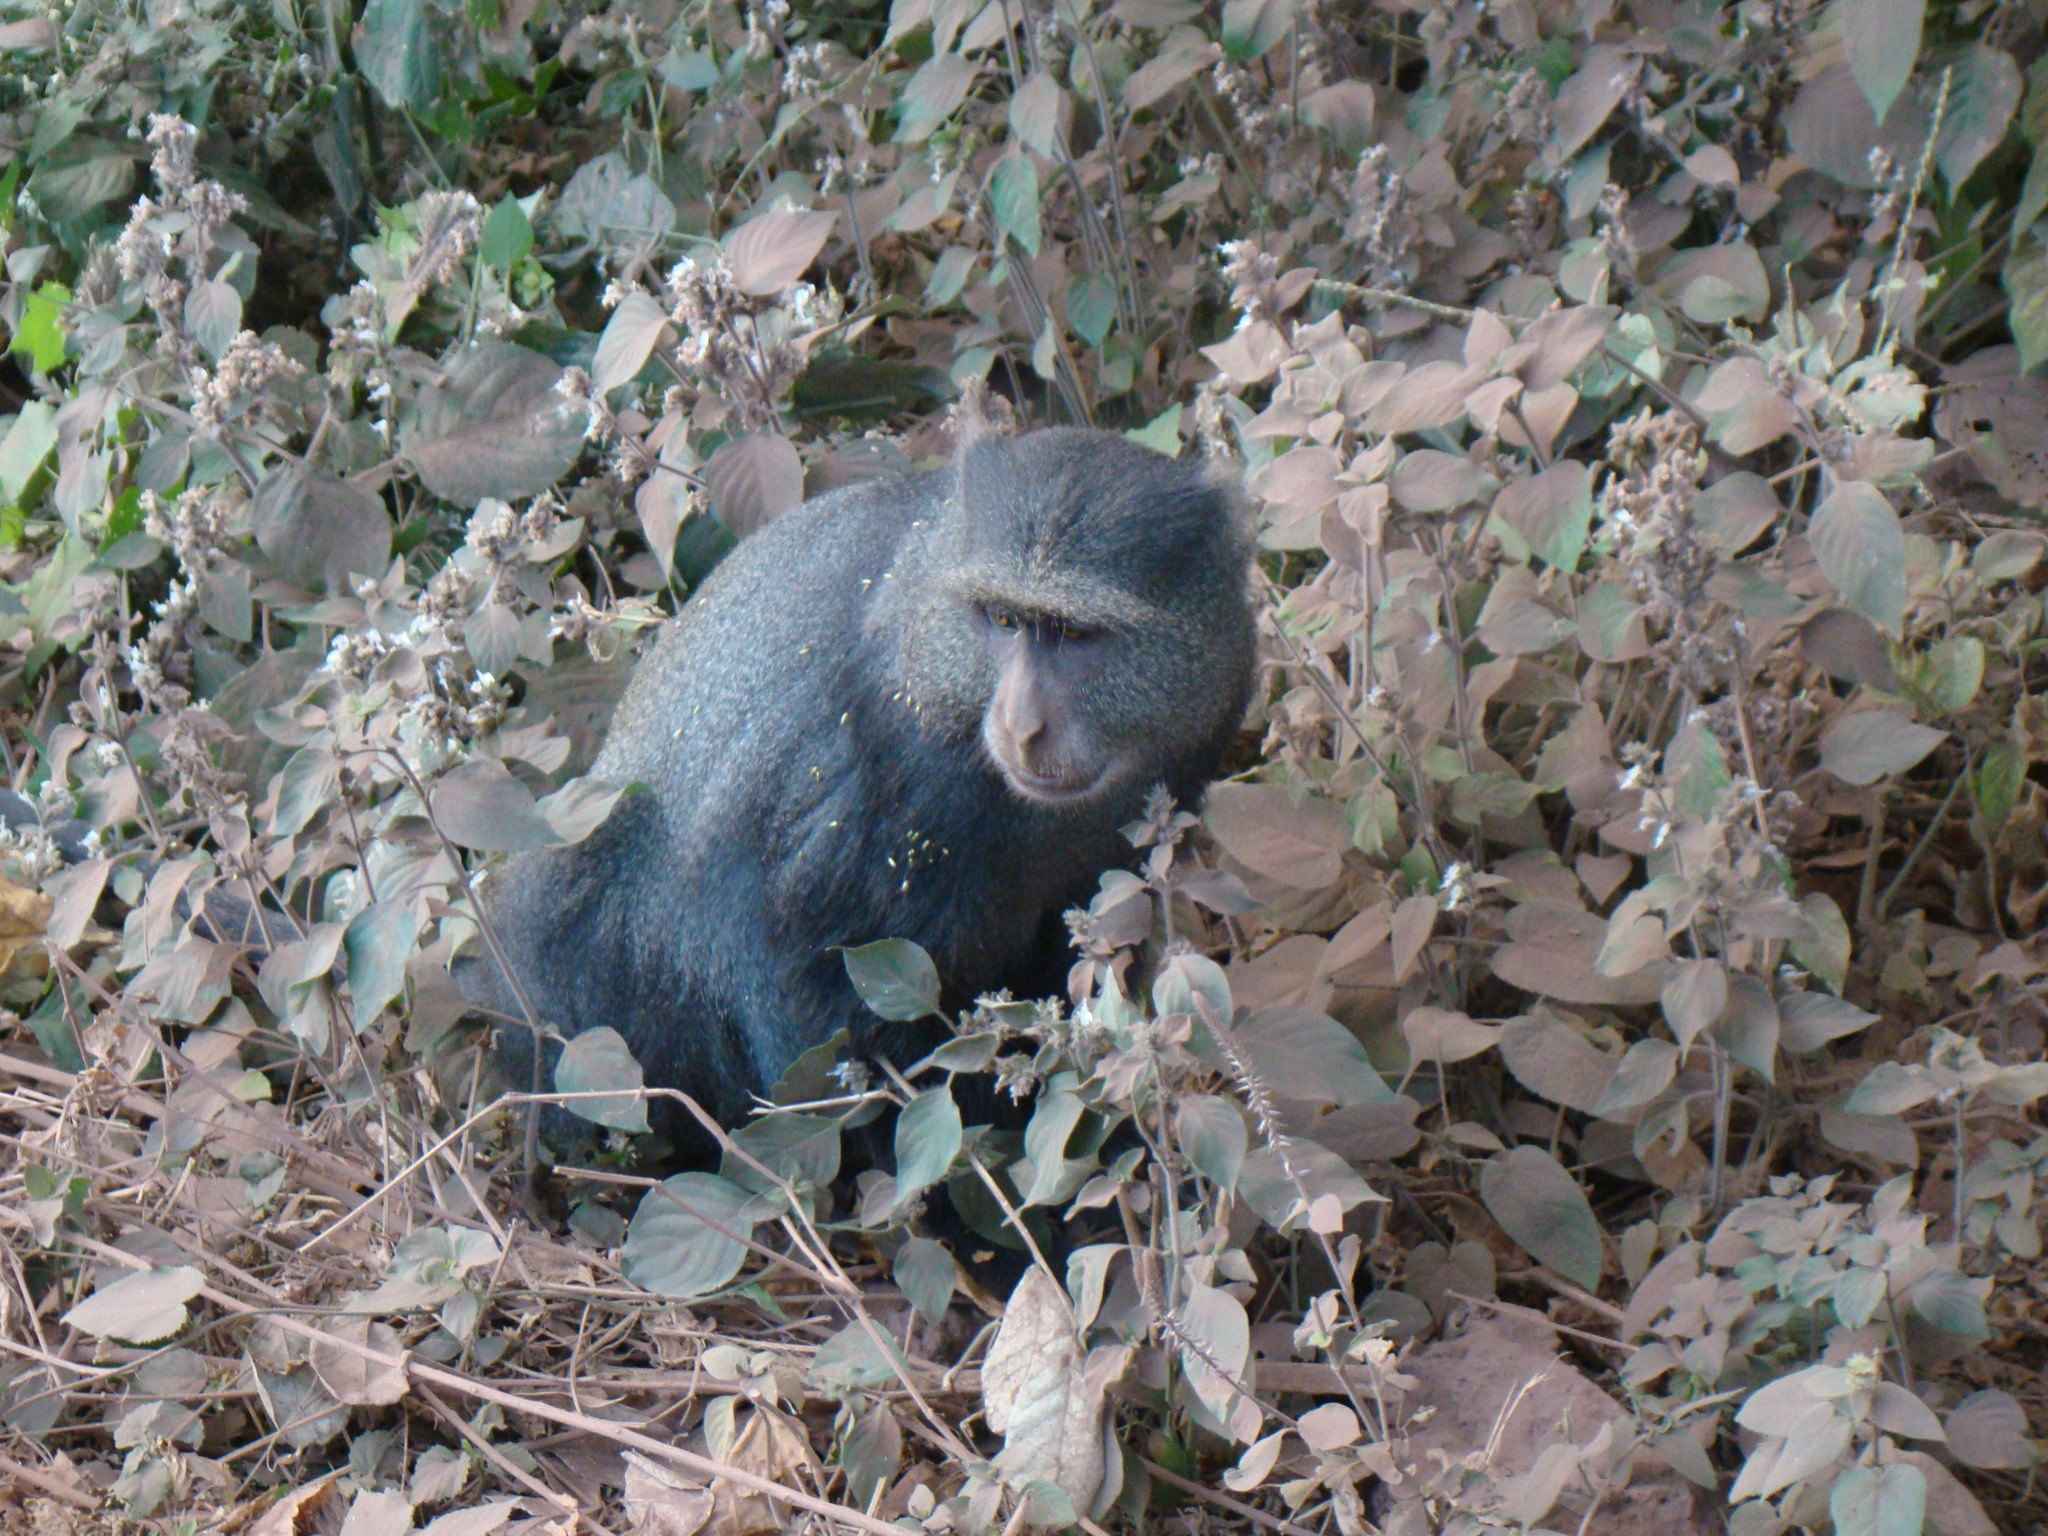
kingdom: Animalia
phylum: Chordata
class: Mammalia
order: Primates
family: Cercopithecidae
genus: Cercopithecus
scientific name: Cercopithecus mitis
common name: Blue monkey
